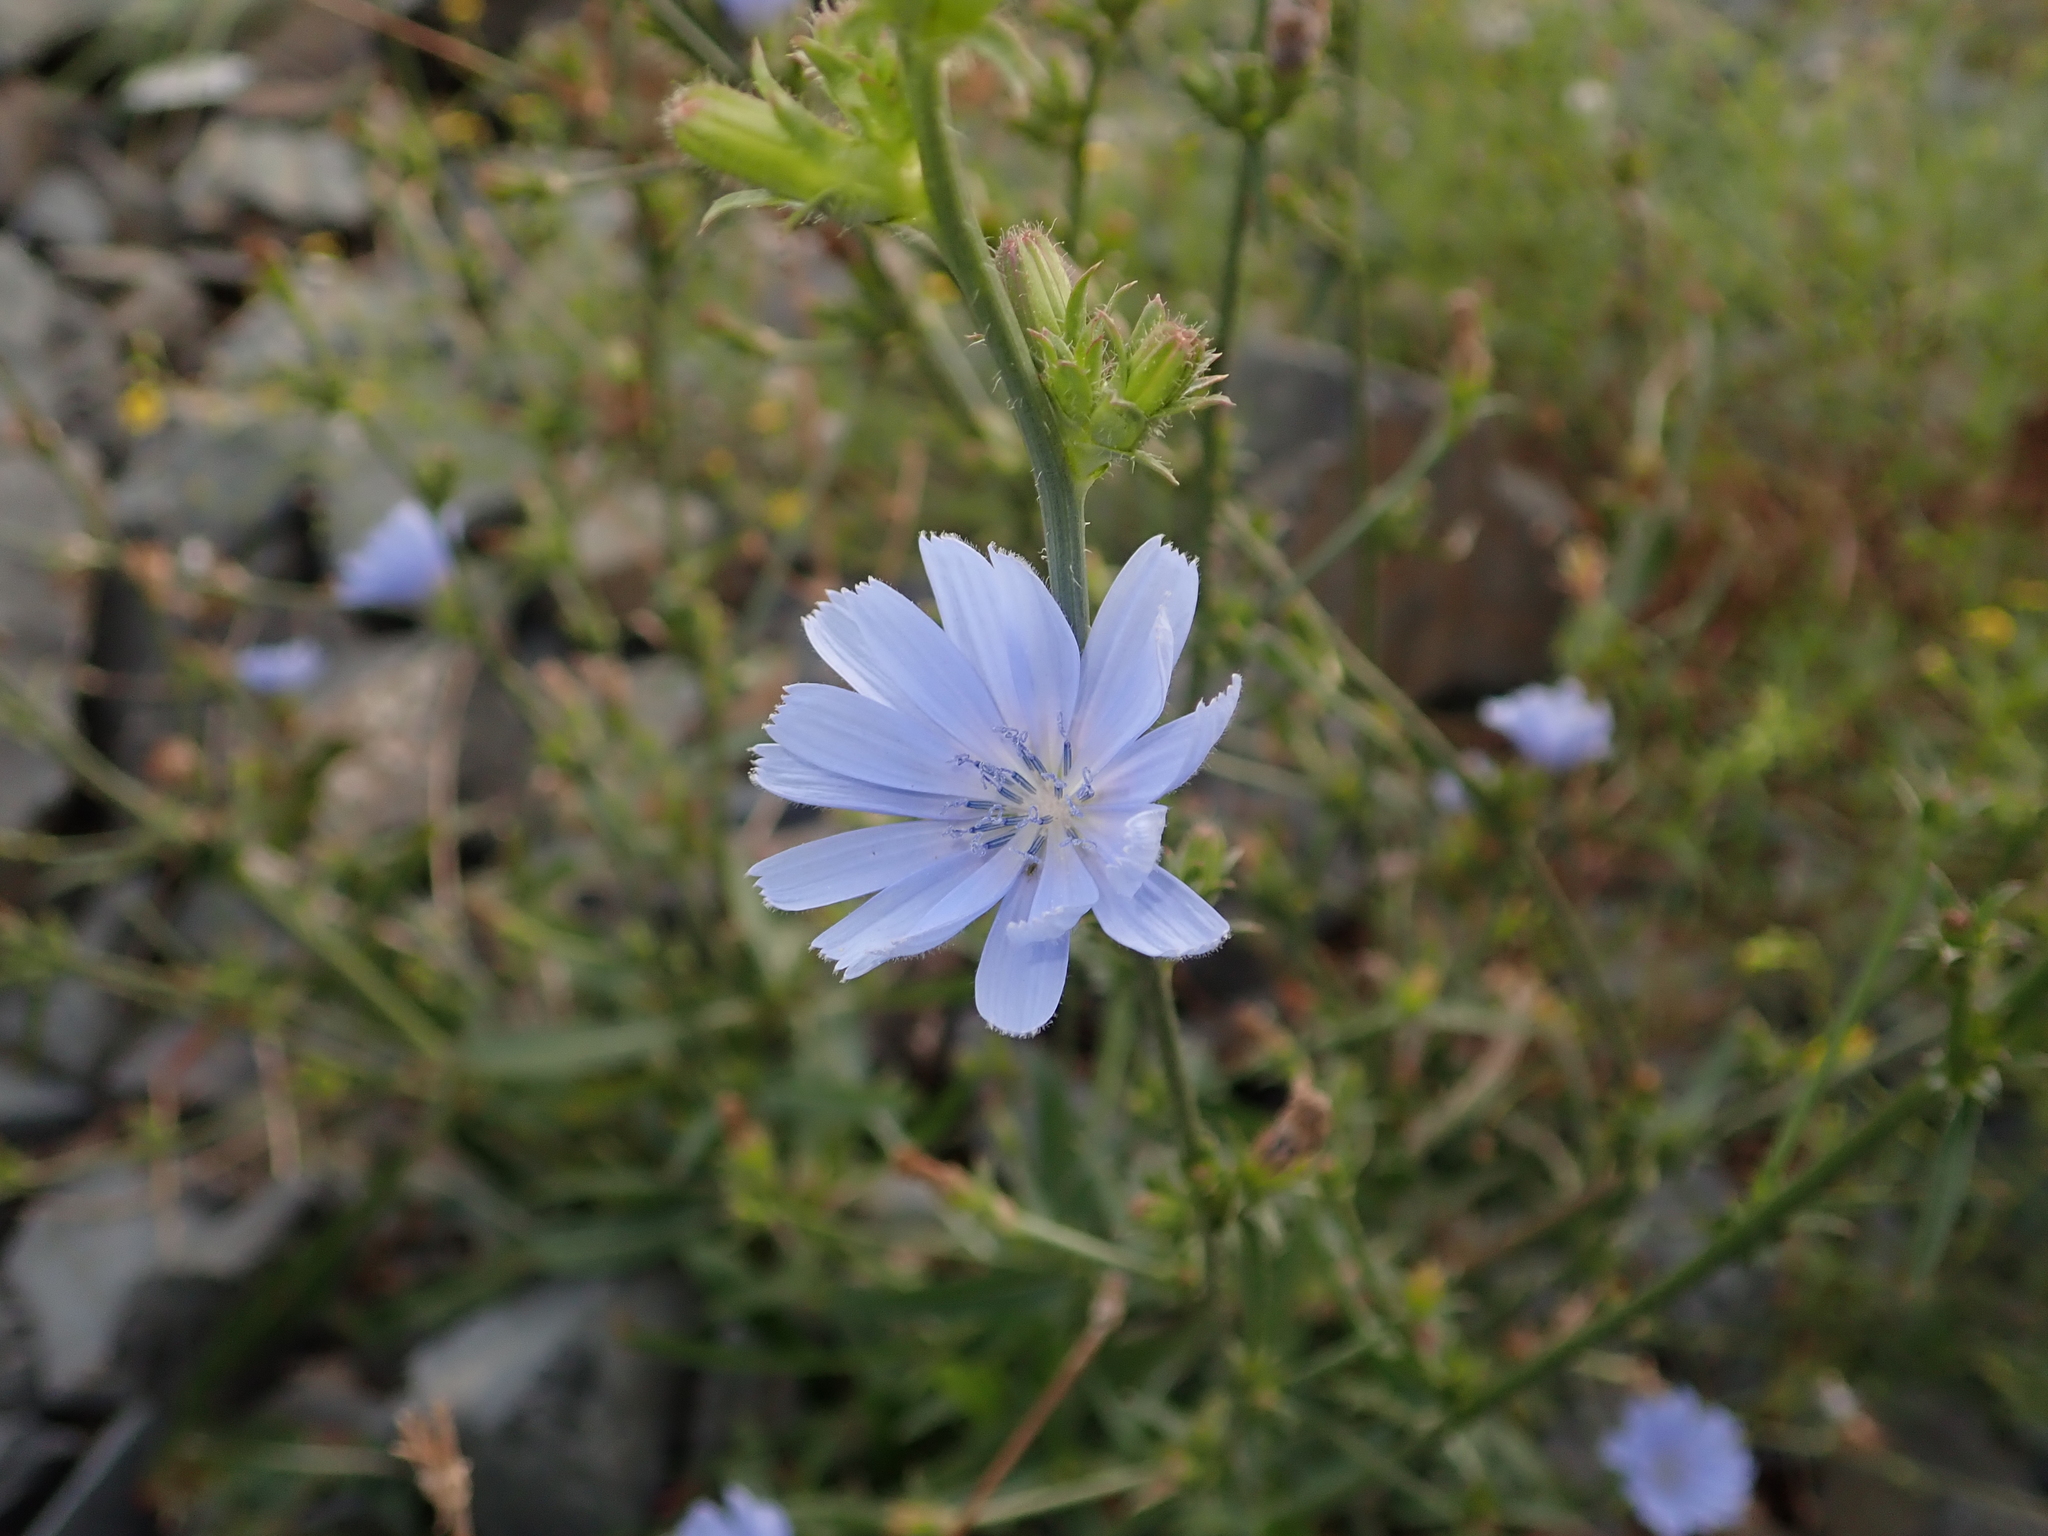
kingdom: Plantae
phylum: Tracheophyta
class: Magnoliopsida
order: Asterales
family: Asteraceae
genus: Cichorium
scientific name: Cichorium intybus
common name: Chicory
